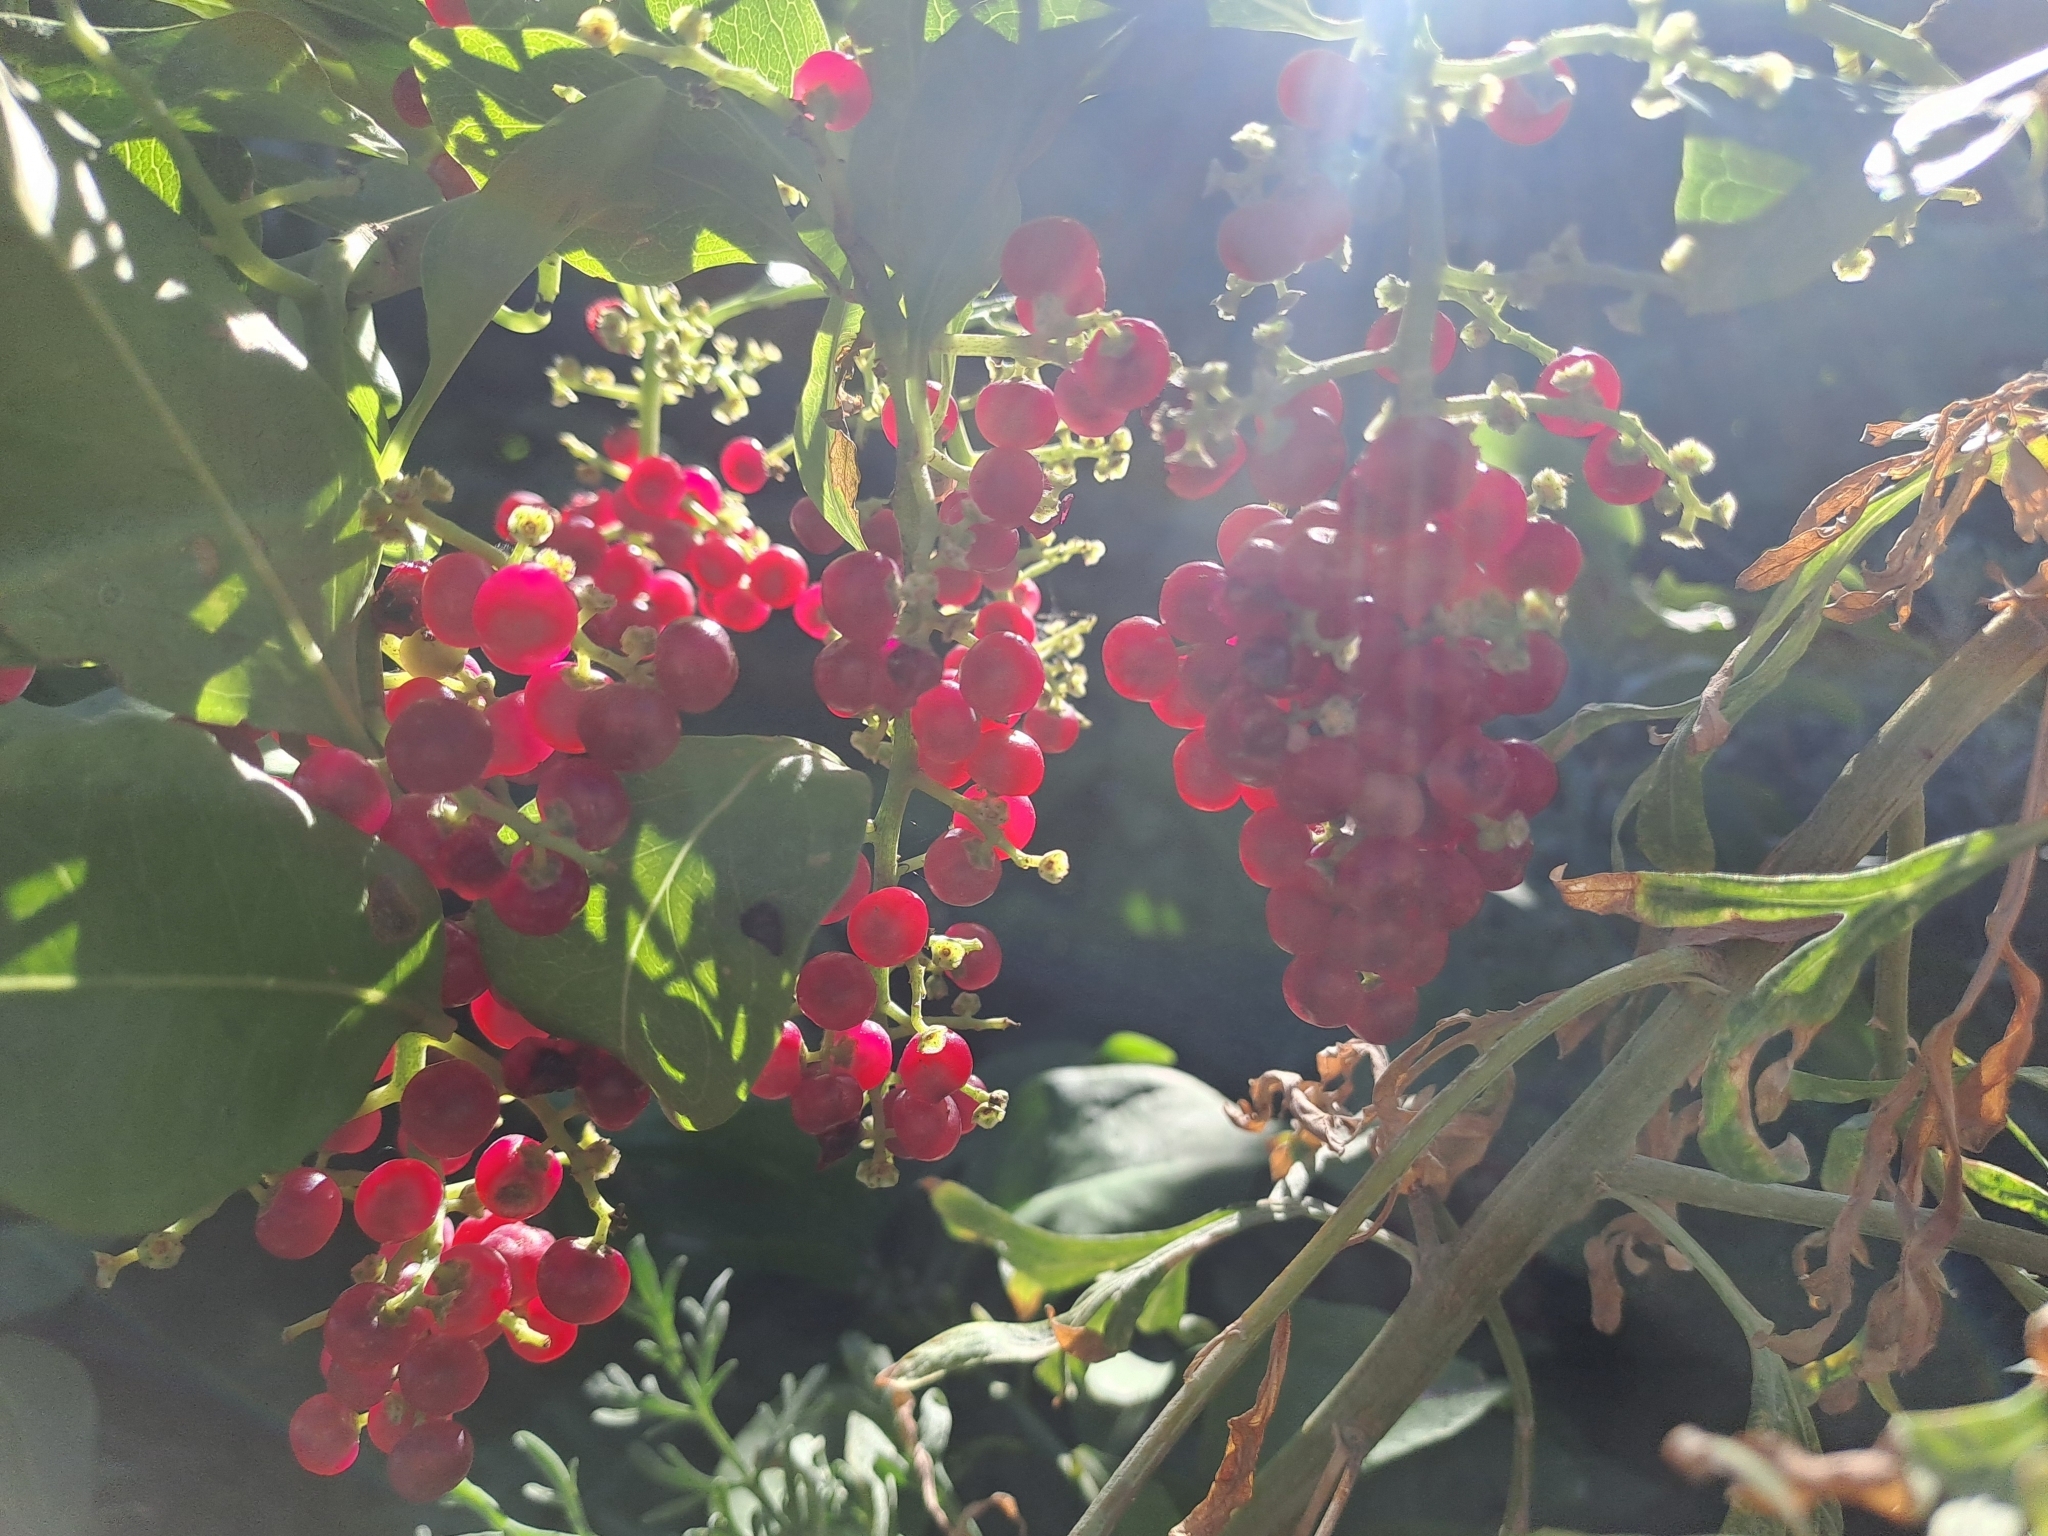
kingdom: Plantae
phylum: Tracheophyta
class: Magnoliopsida
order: Caryophyllales
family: Amaranthaceae
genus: Bosea
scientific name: Bosea yervamora
